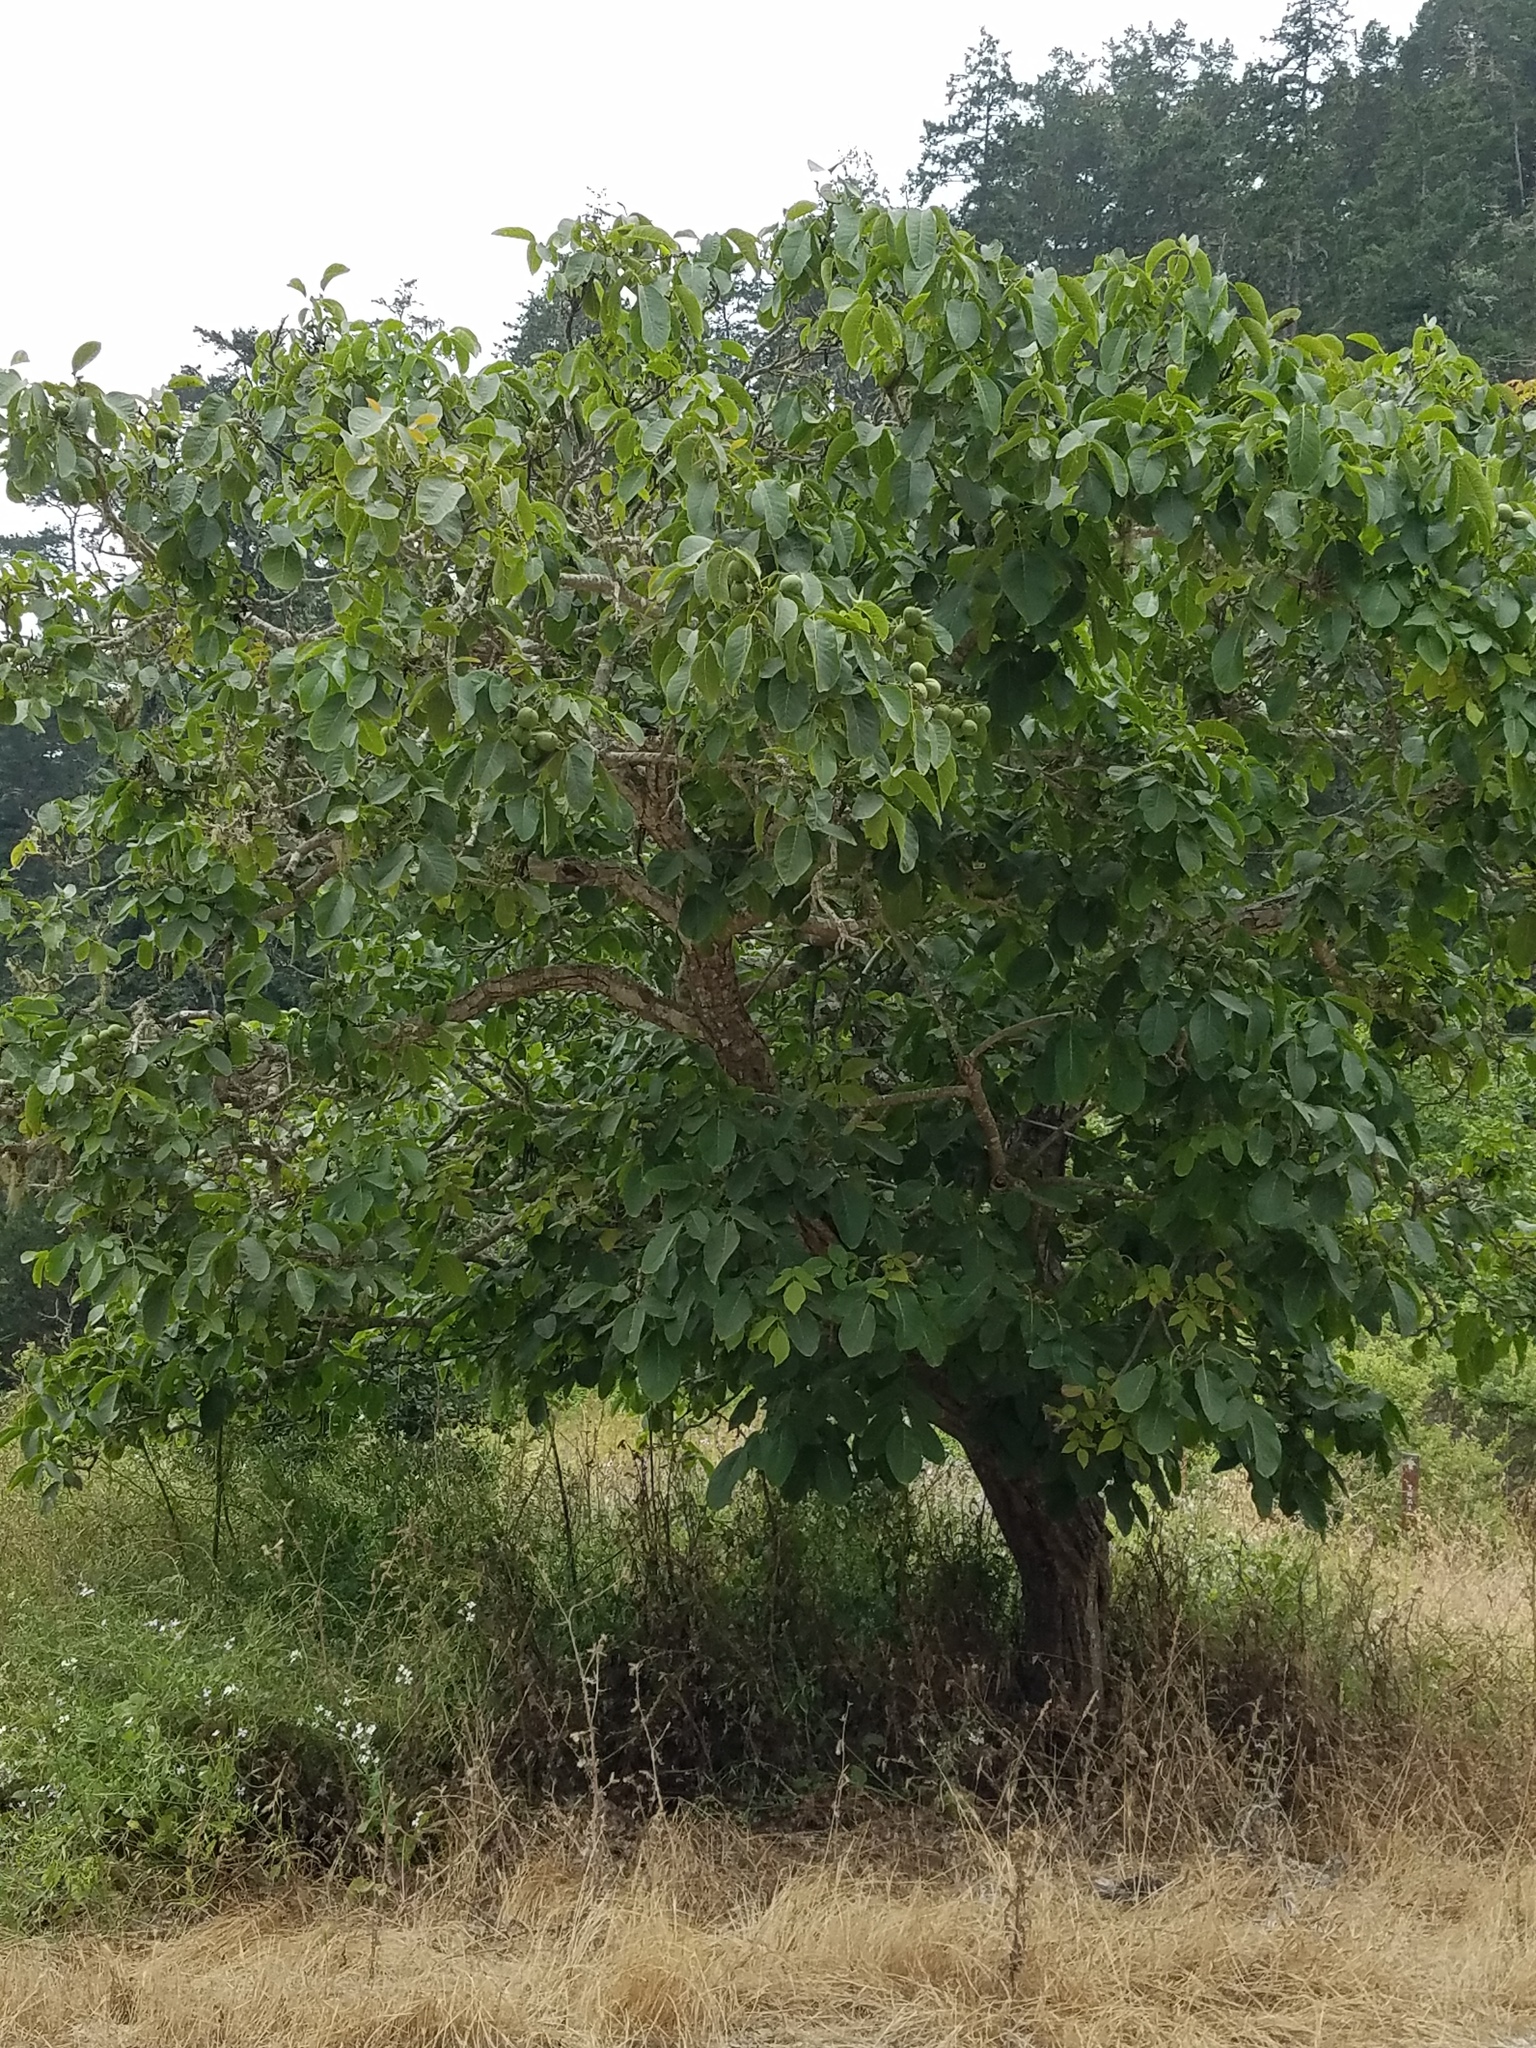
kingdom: Plantae
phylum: Tracheophyta
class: Magnoliopsida
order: Fagales
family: Juglandaceae
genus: Juglans
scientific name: Juglans regia
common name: Walnut
